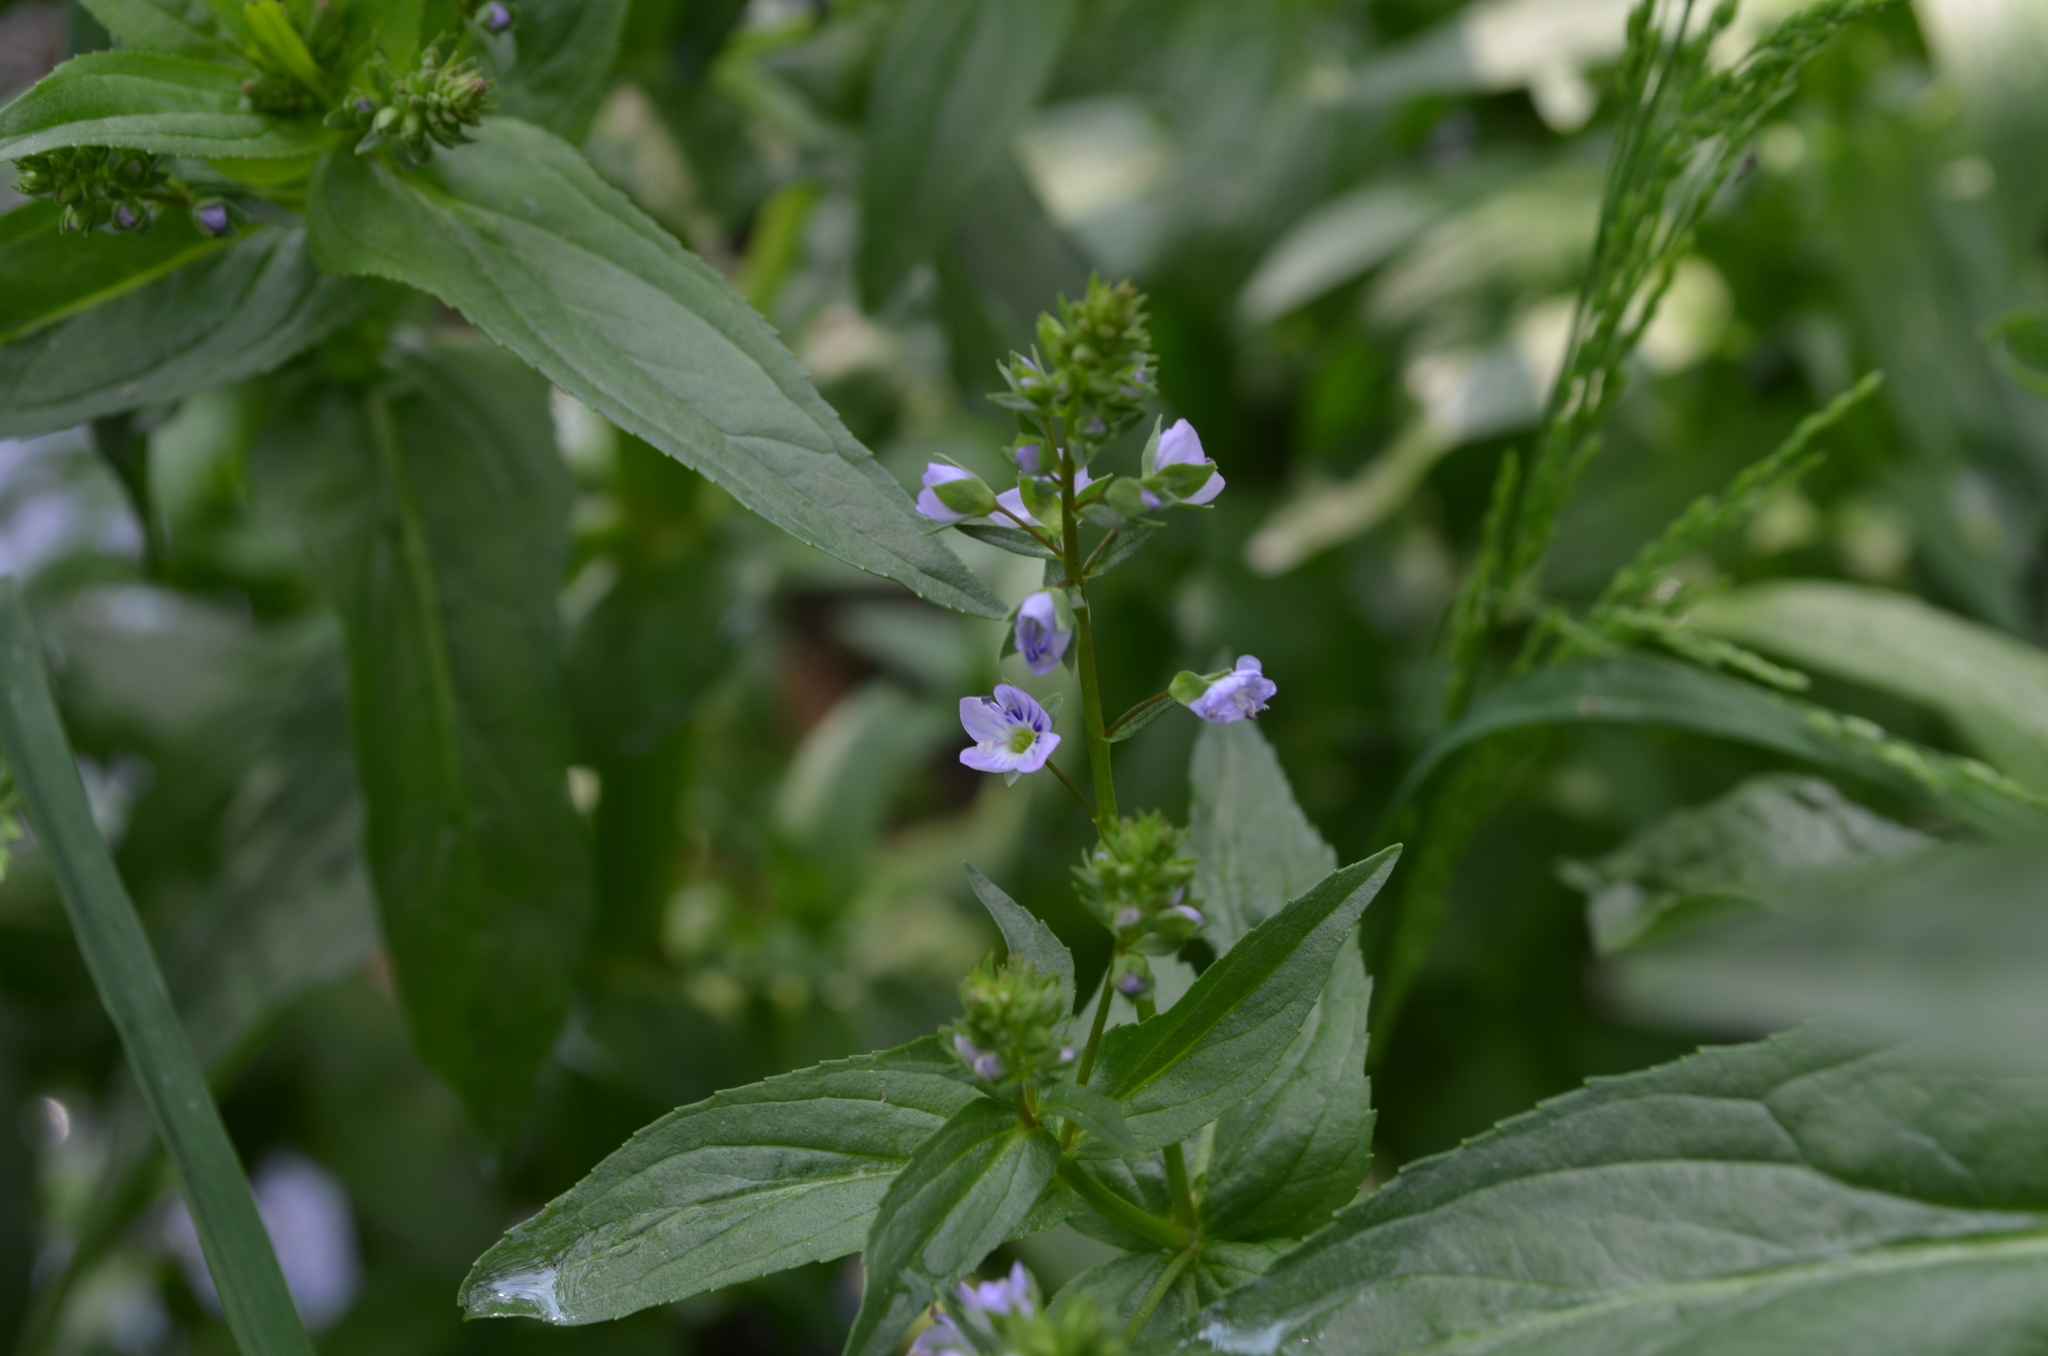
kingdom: Plantae
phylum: Tracheophyta
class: Magnoliopsida
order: Lamiales
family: Plantaginaceae
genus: Veronica
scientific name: Veronica anagallis-aquatica
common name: Water speedwell
